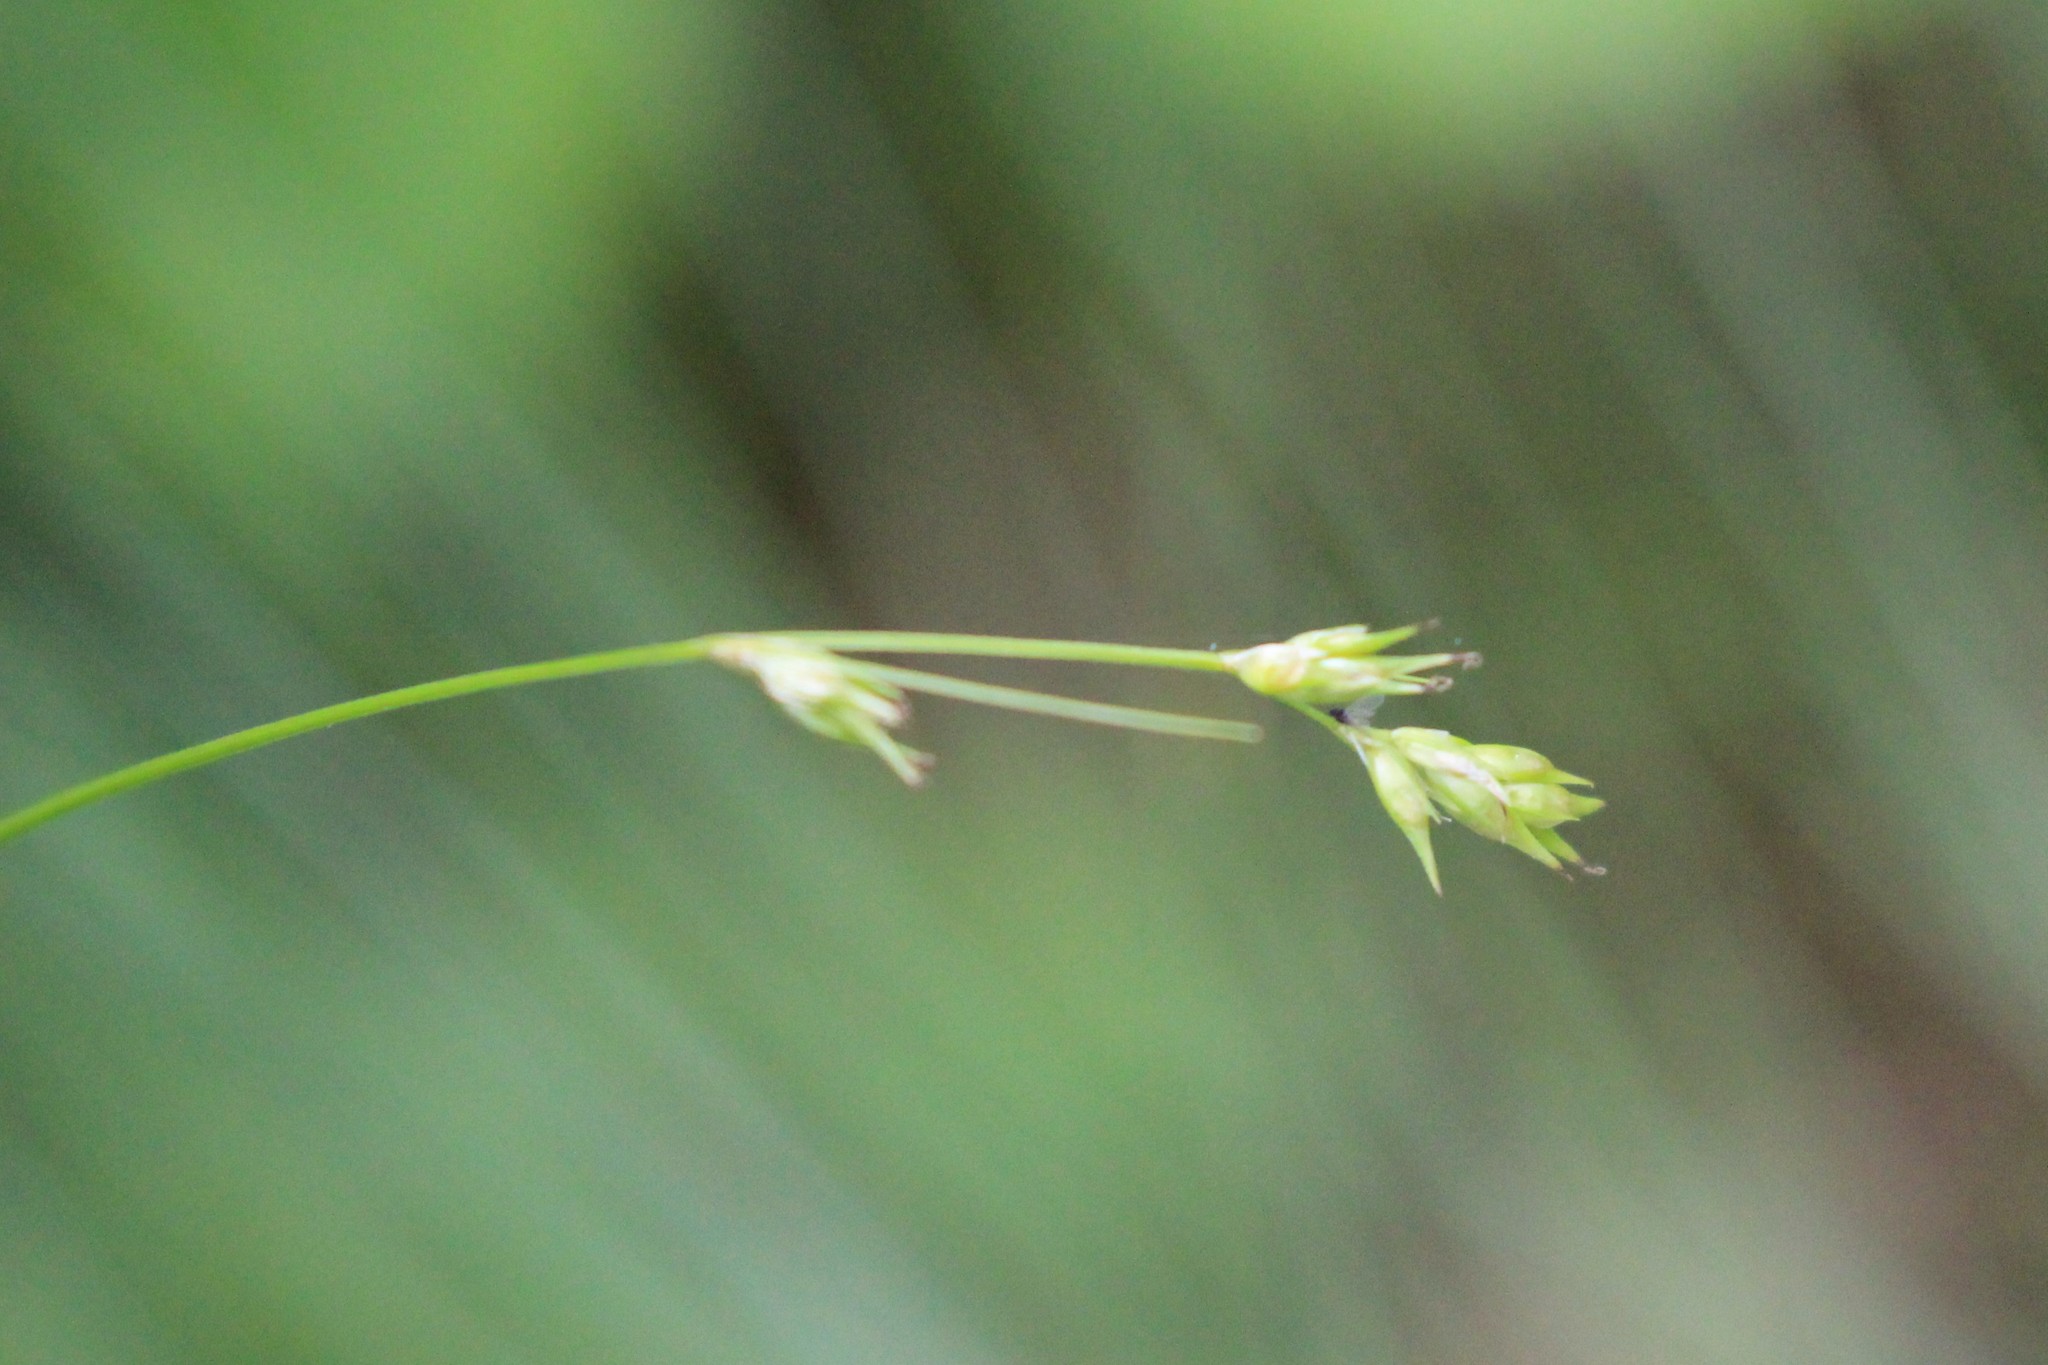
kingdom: Plantae
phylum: Tracheophyta
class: Liliopsida
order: Poales
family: Cyperaceae
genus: Carex
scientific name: Carex deweyana
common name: Dewey's sedge
